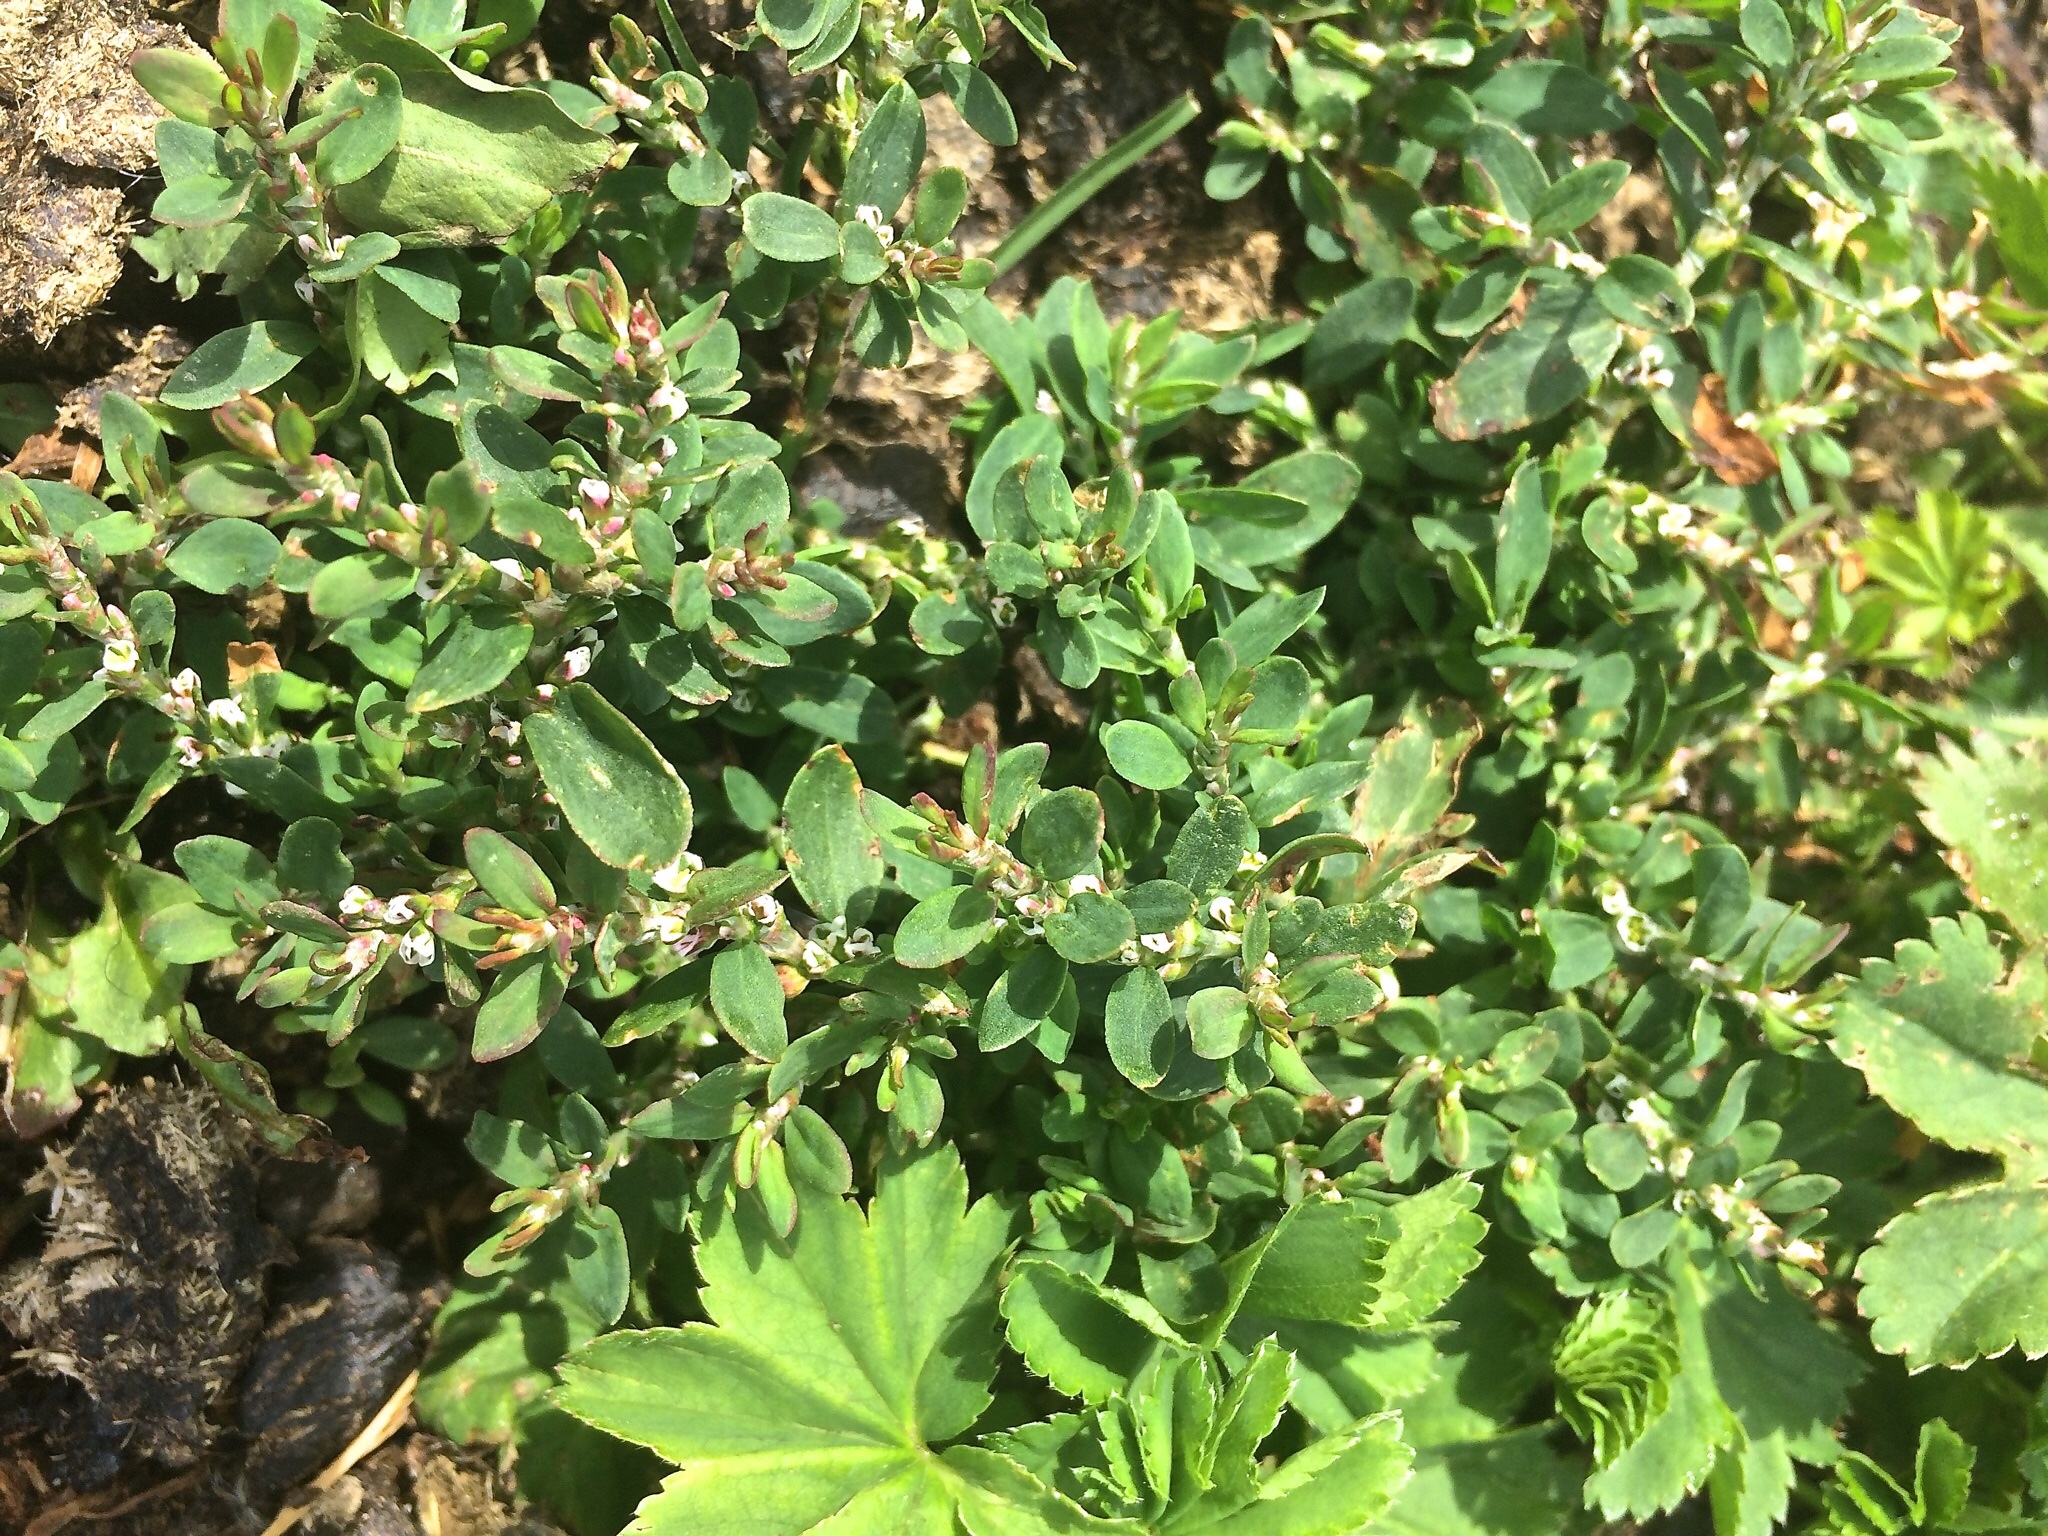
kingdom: Plantae
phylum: Tracheophyta
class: Magnoliopsida
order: Caryophyllales
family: Polygonaceae
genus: Polygonum
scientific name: Polygonum aviculare
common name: Prostrate knotweed
